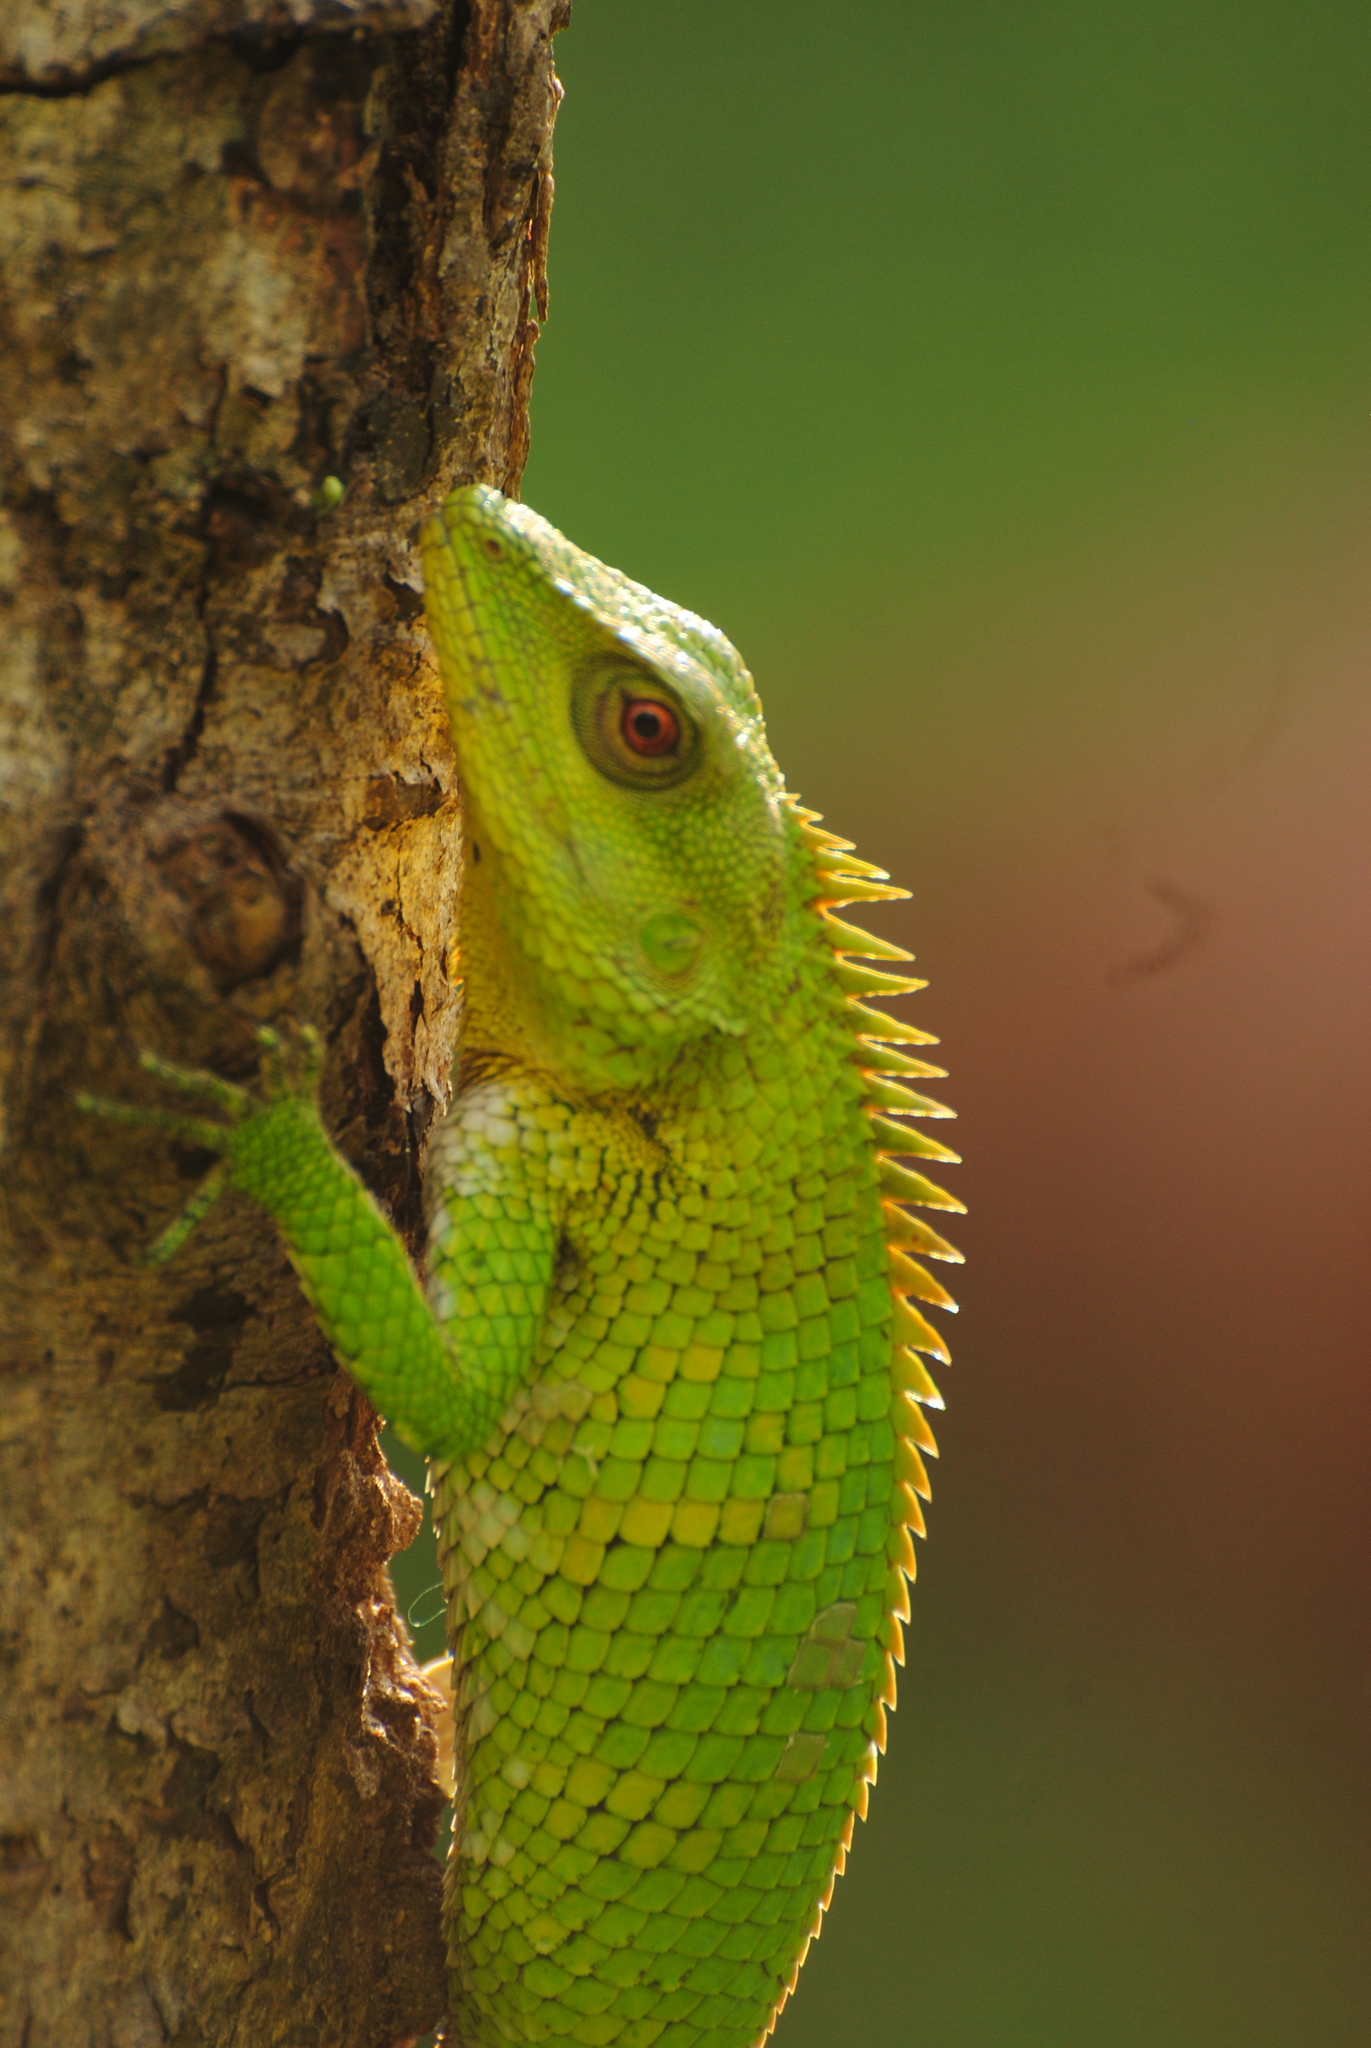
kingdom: Animalia
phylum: Chordata
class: Squamata
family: Agamidae
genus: Calotes
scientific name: Calotes nemoricola
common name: Nilgiri forest lizard
